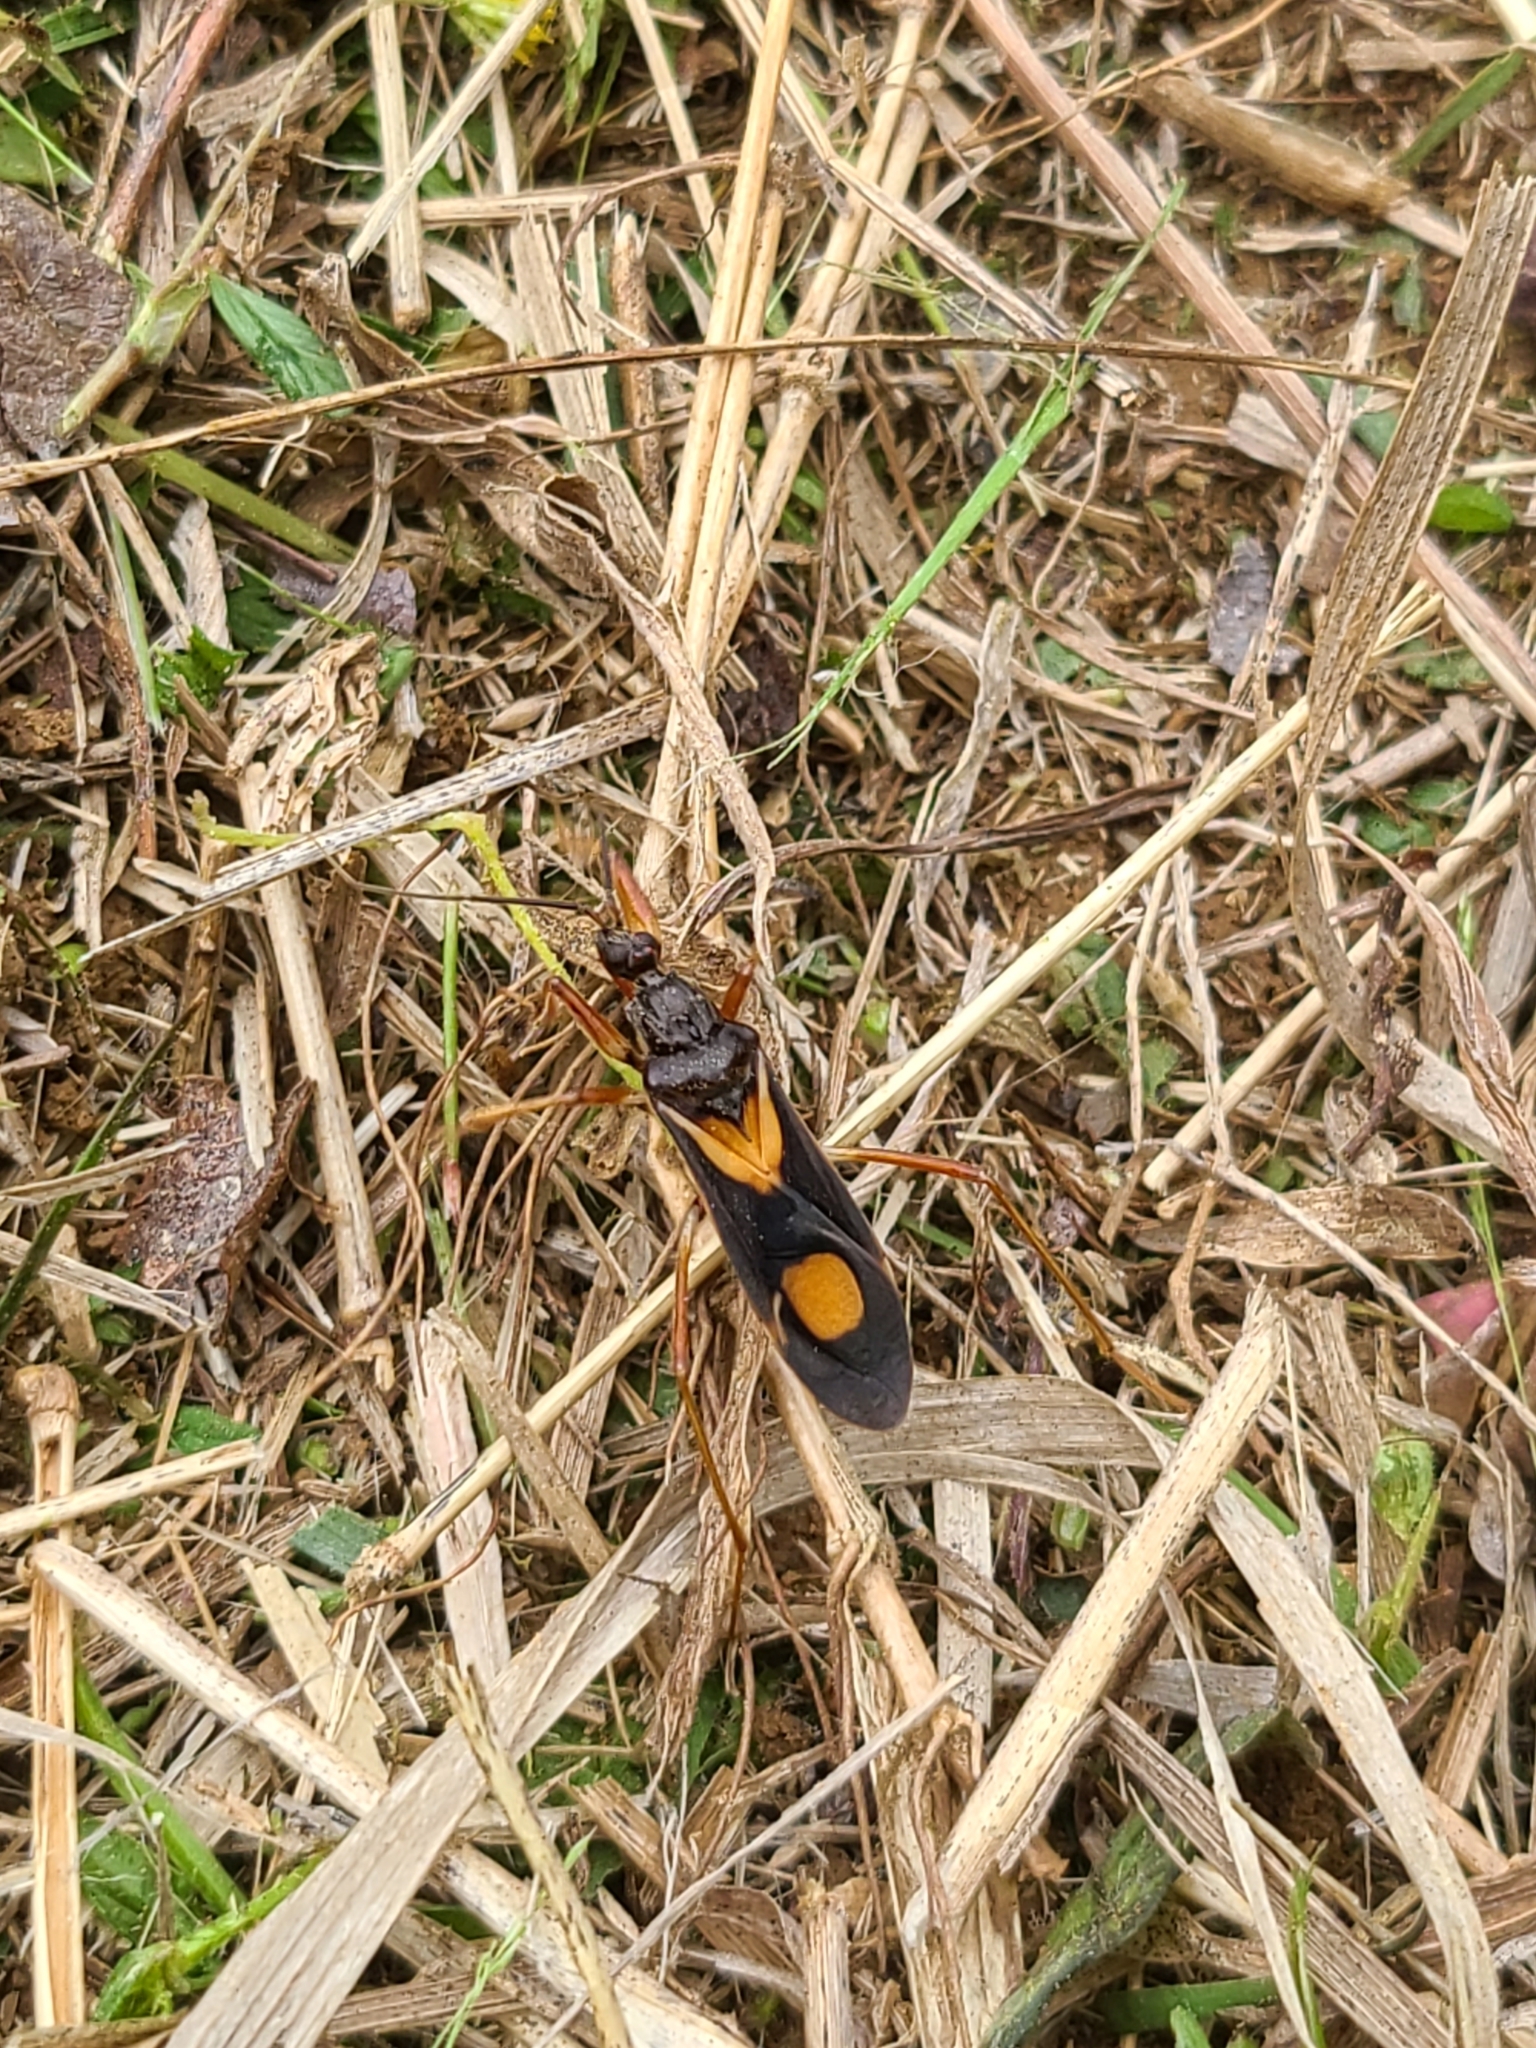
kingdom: Animalia
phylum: Arthropoda
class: Insecta
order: Hemiptera
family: Reduviidae
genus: Rasahus
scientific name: Rasahus hamatus
